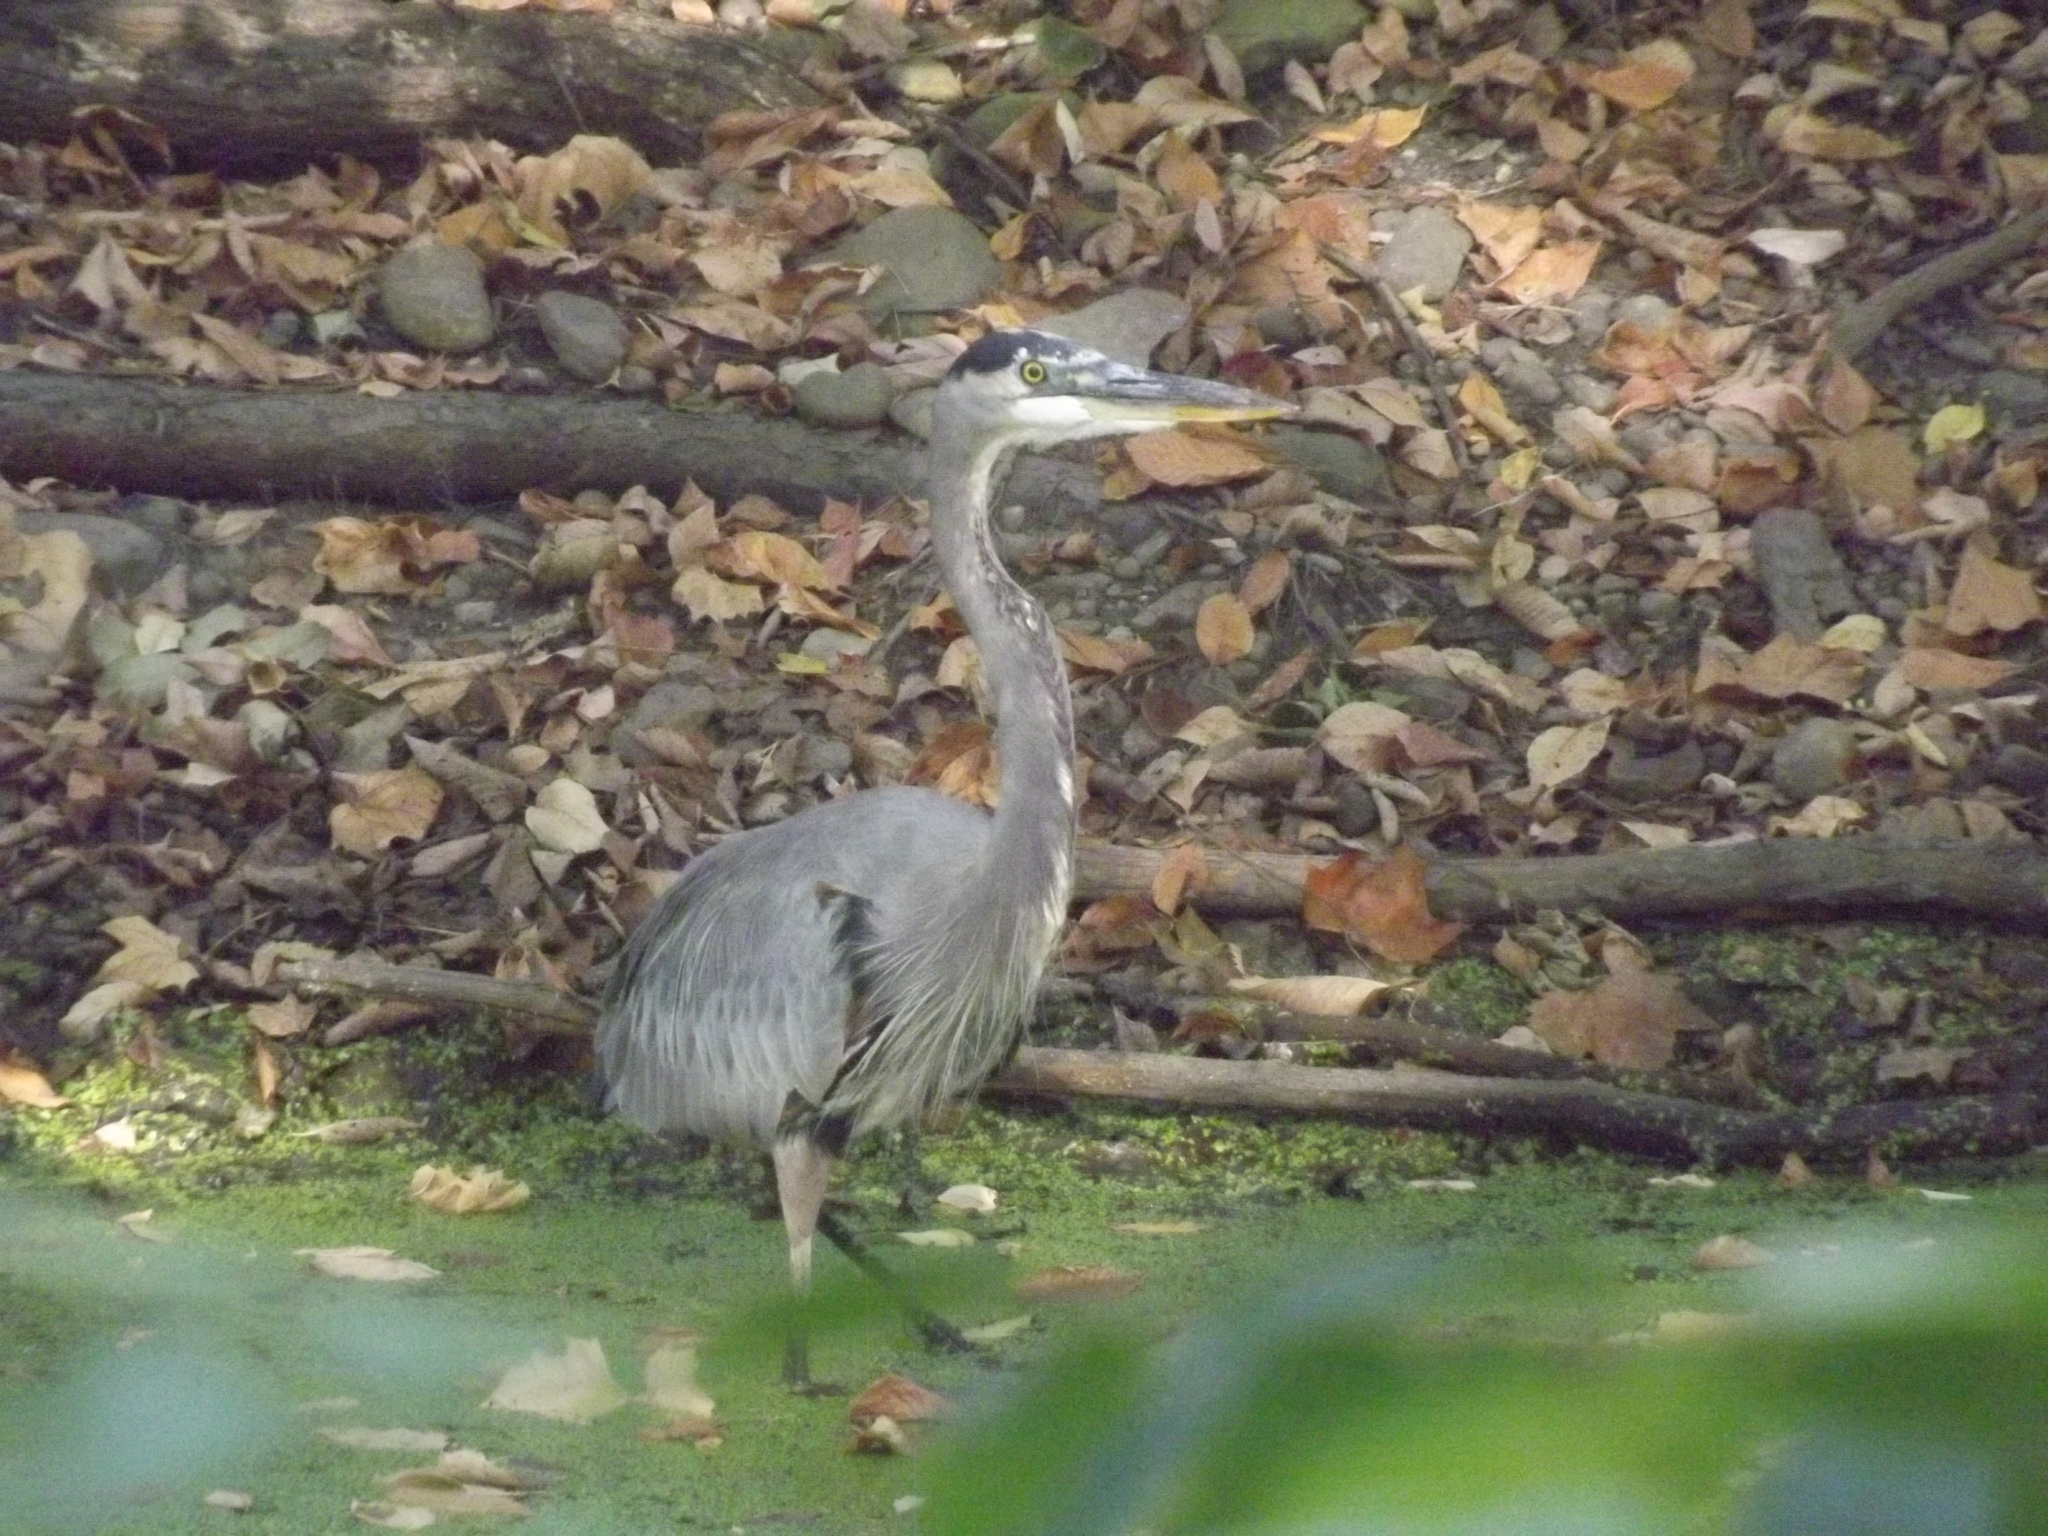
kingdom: Animalia
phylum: Chordata
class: Aves
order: Pelecaniformes
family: Ardeidae
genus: Ardea
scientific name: Ardea herodias
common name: Great blue heron
